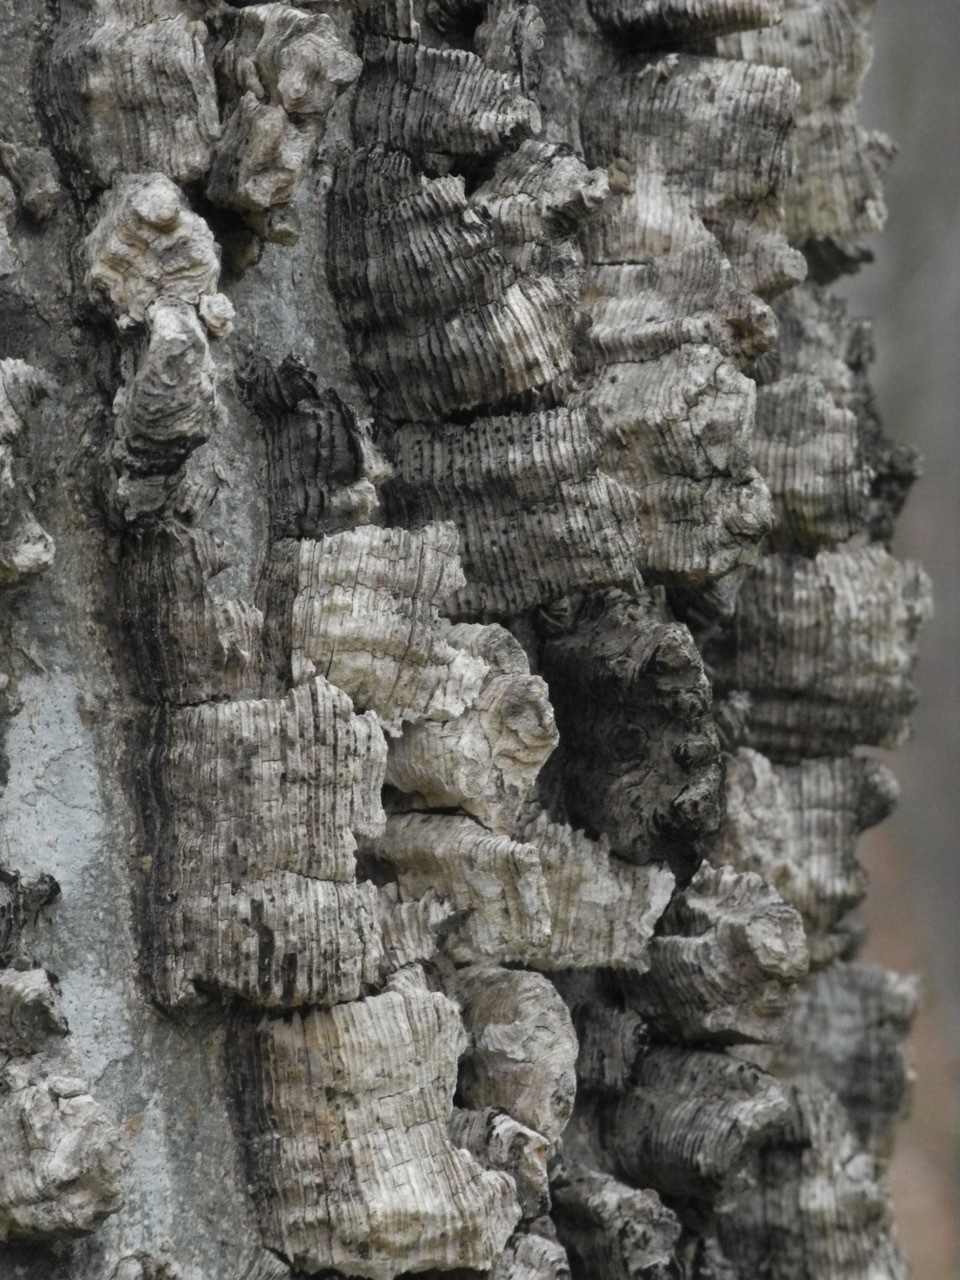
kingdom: Plantae
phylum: Tracheophyta
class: Magnoliopsida
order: Rosales
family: Cannabaceae
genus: Celtis
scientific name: Celtis laevigata
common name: Sugarberry
